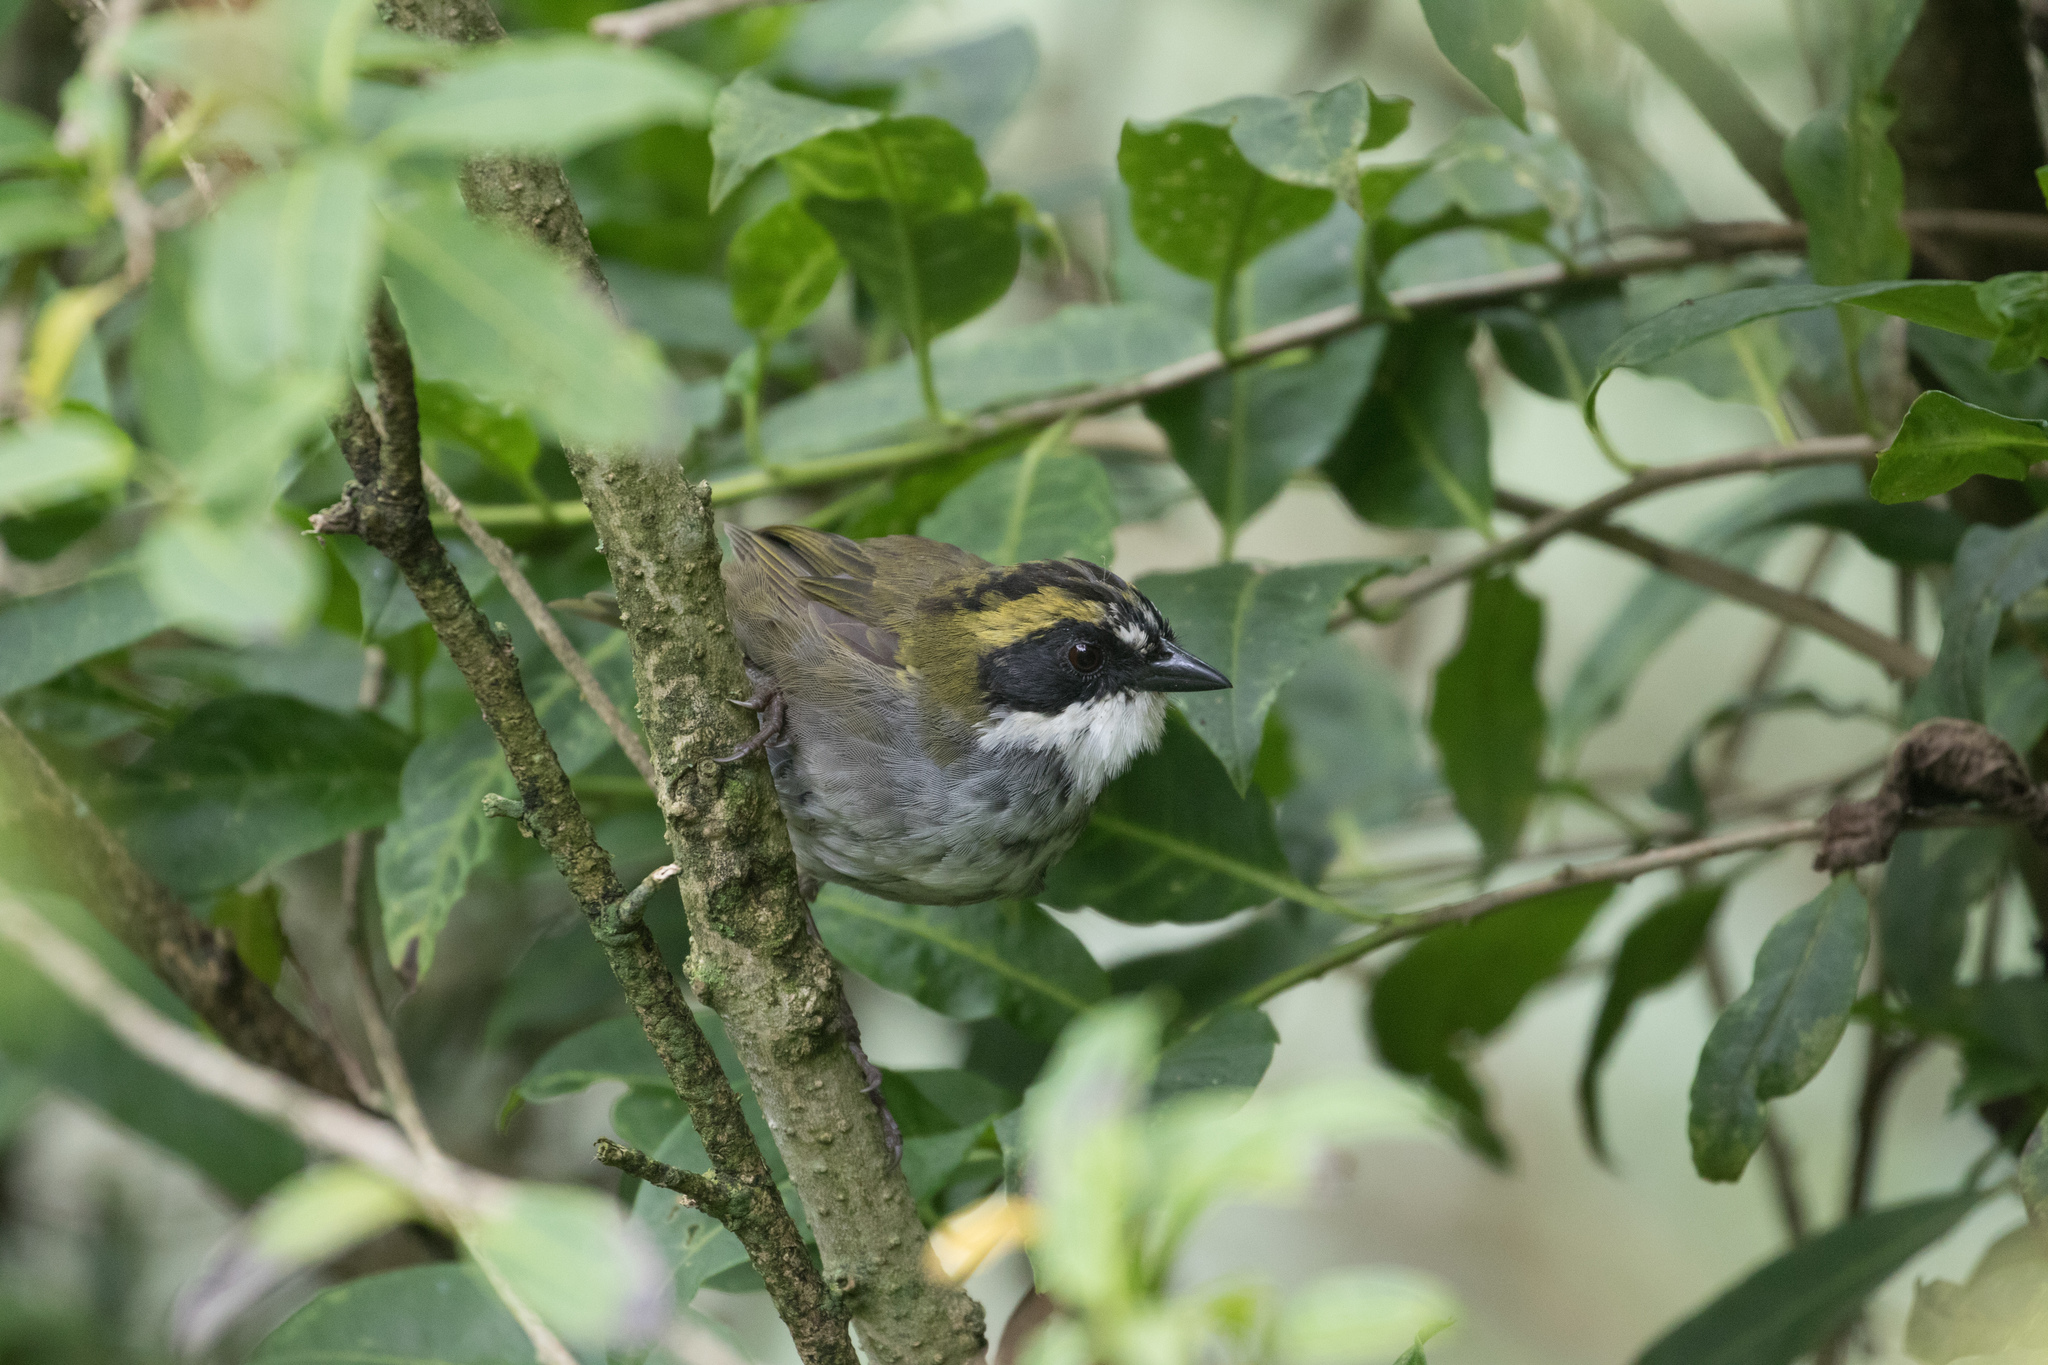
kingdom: Animalia
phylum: Chordata
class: Aves
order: Passeriformes
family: Passerellidae
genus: Arremon
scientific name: Arremon virenticeps
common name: Green-striped brushfinch
